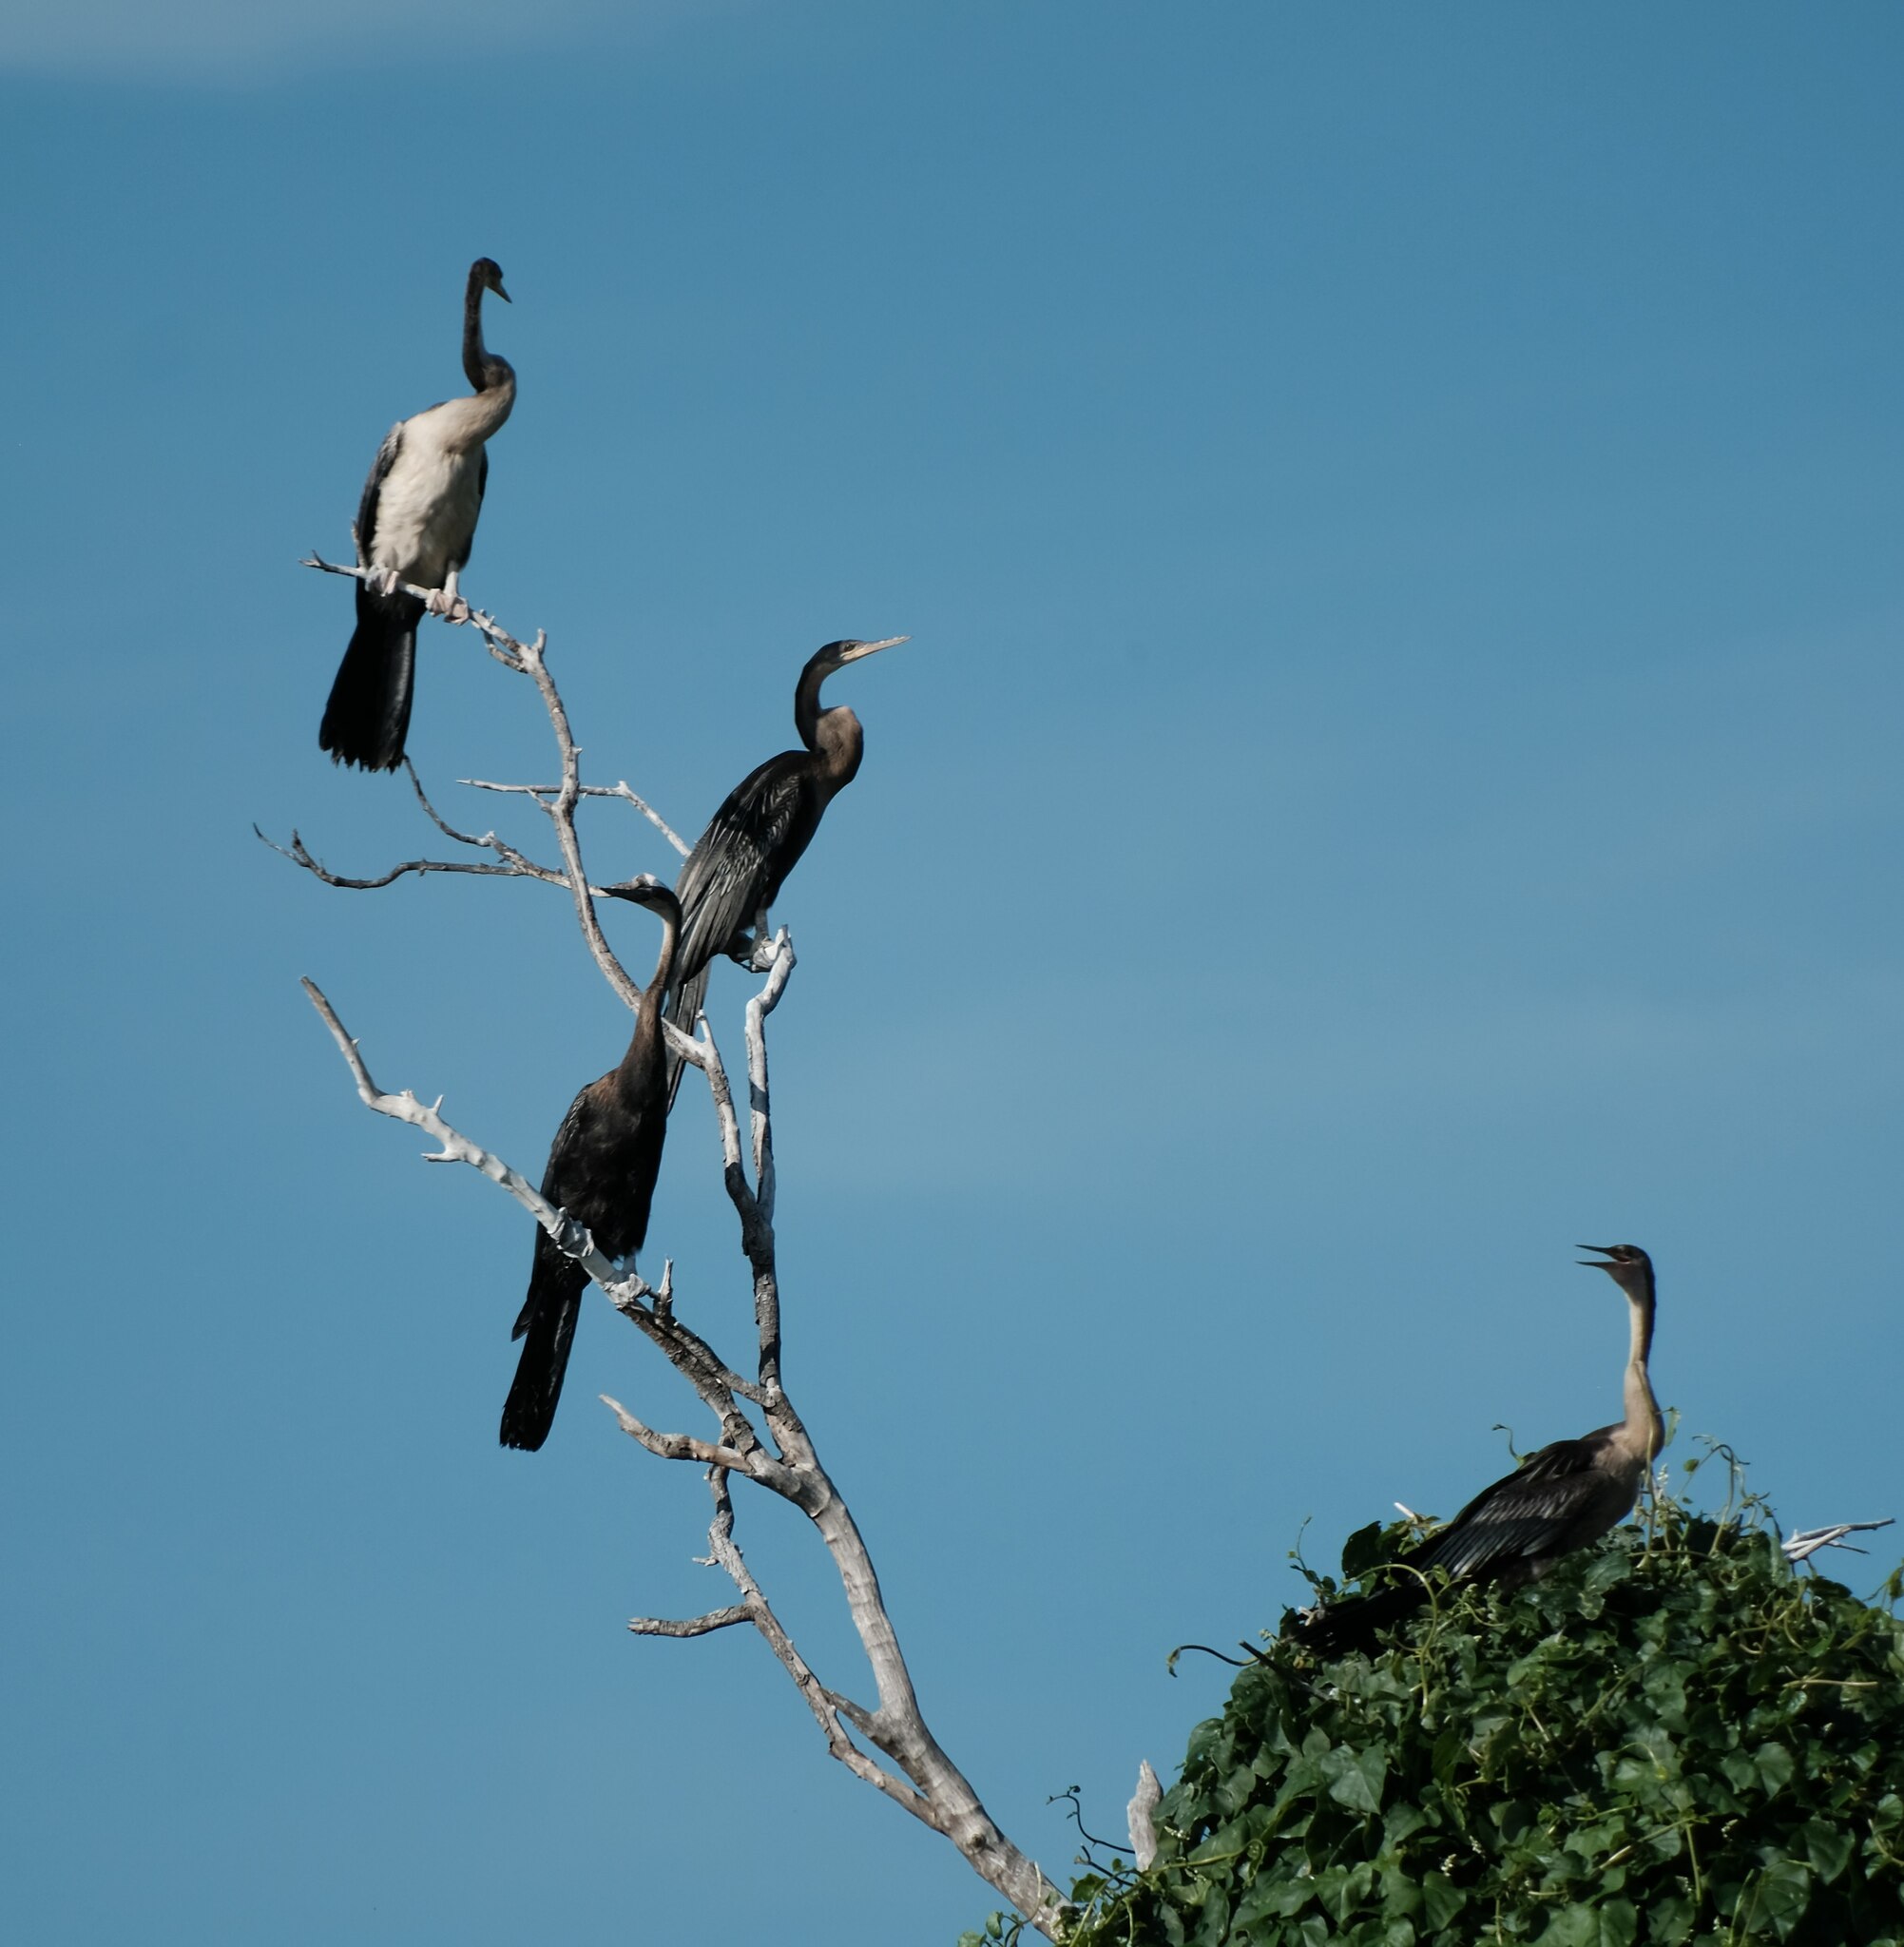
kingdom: Animalia
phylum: Chordata
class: Aves
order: Suliformes
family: Anhingidae
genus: Anhinga
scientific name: Anhinga rufa
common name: African darter
